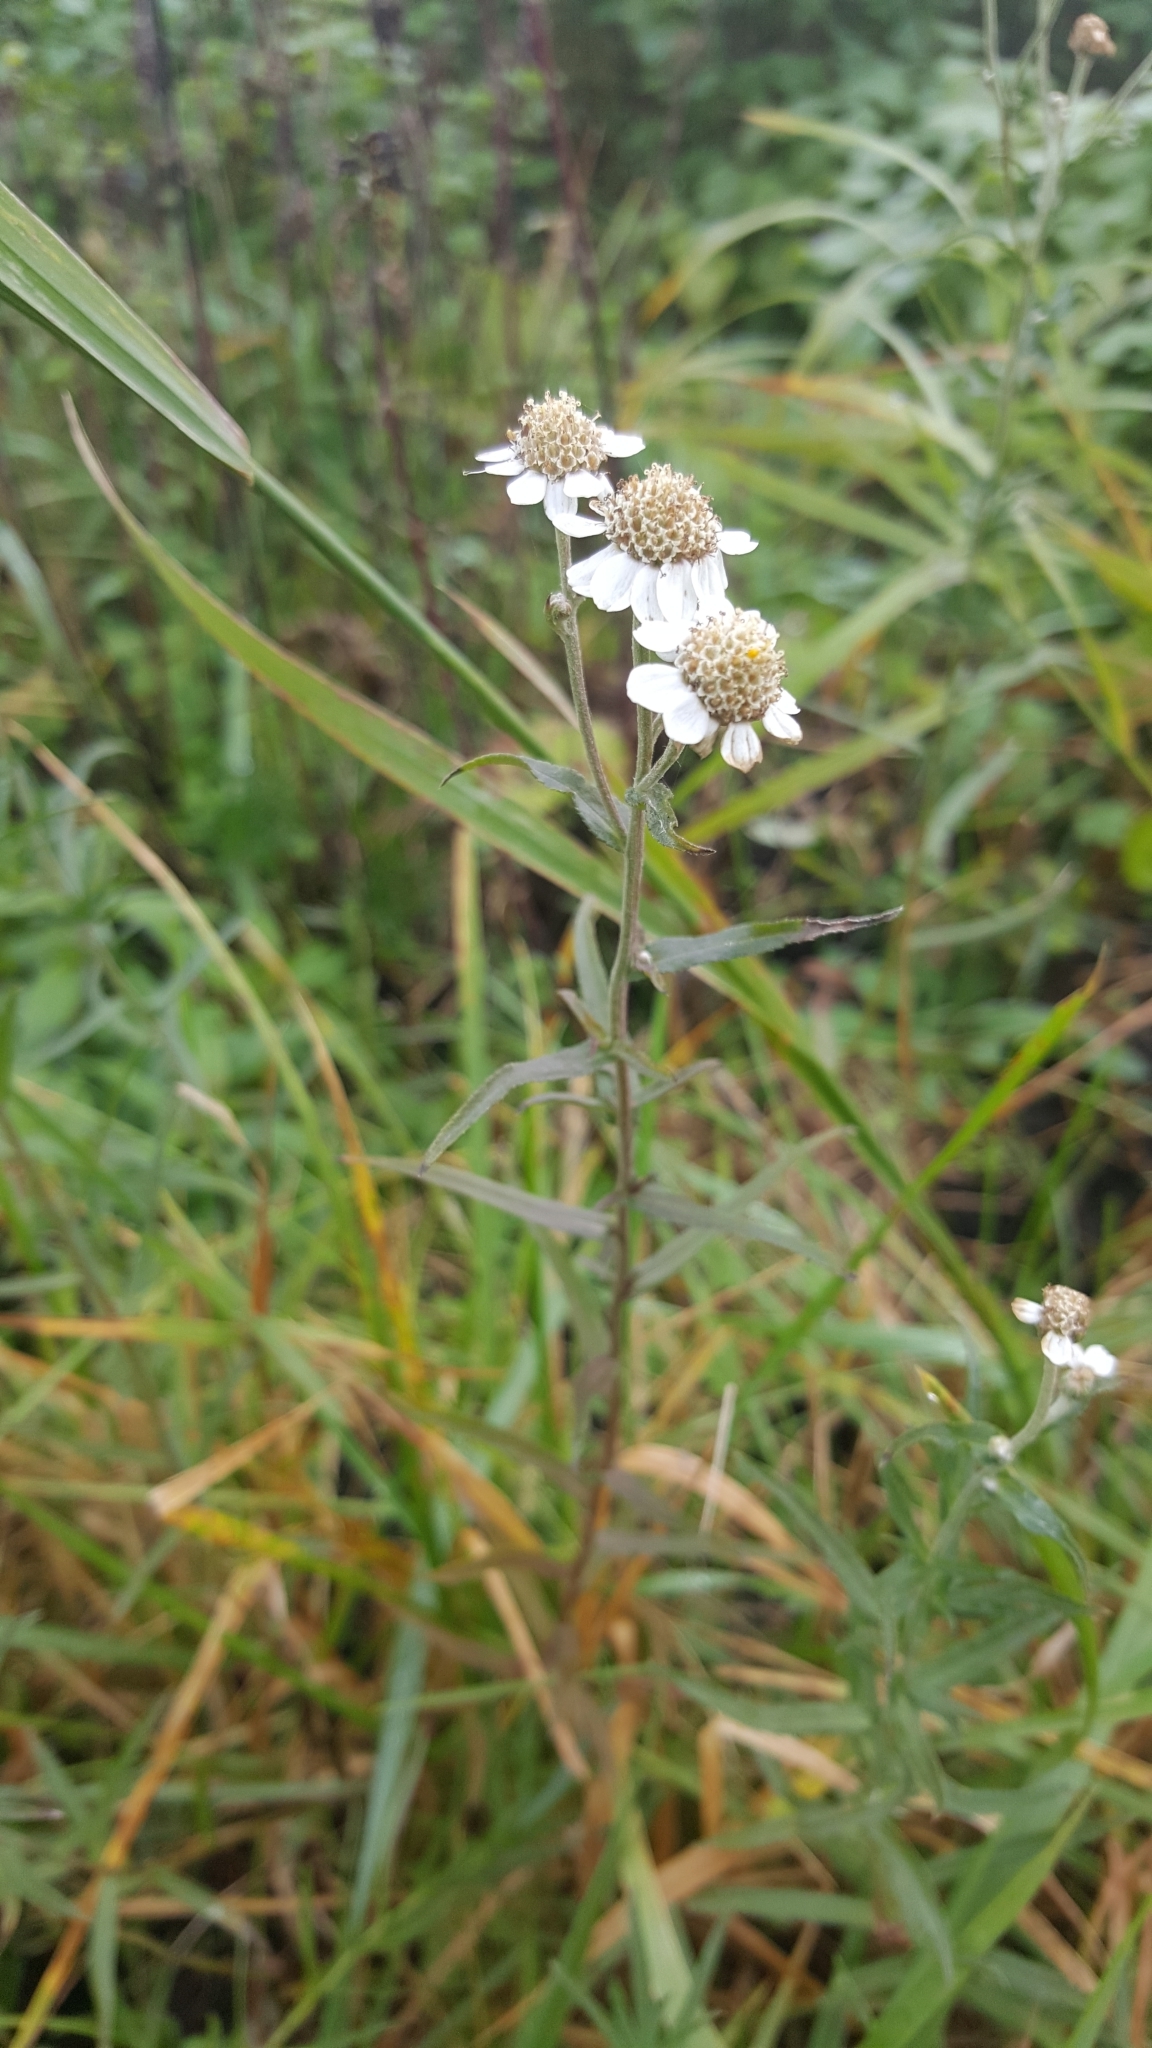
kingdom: Plantae
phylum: Tracheophyta
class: Magnoliopsida
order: Asterales
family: Asteraceae
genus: Achillea
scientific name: Achillea ptarmica
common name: Sneezeweed
